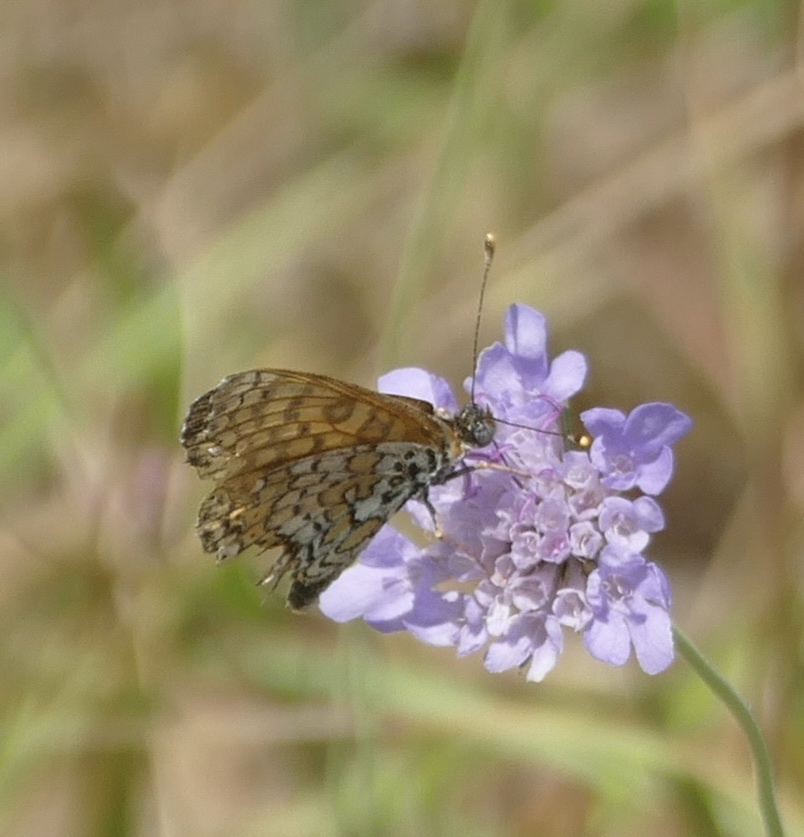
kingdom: Animalia
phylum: Arthropoda
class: Insecta
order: Lepidoptera
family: Nymphalidae
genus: Melitaea
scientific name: Melitaea cinxia
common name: Glanville fritillary
